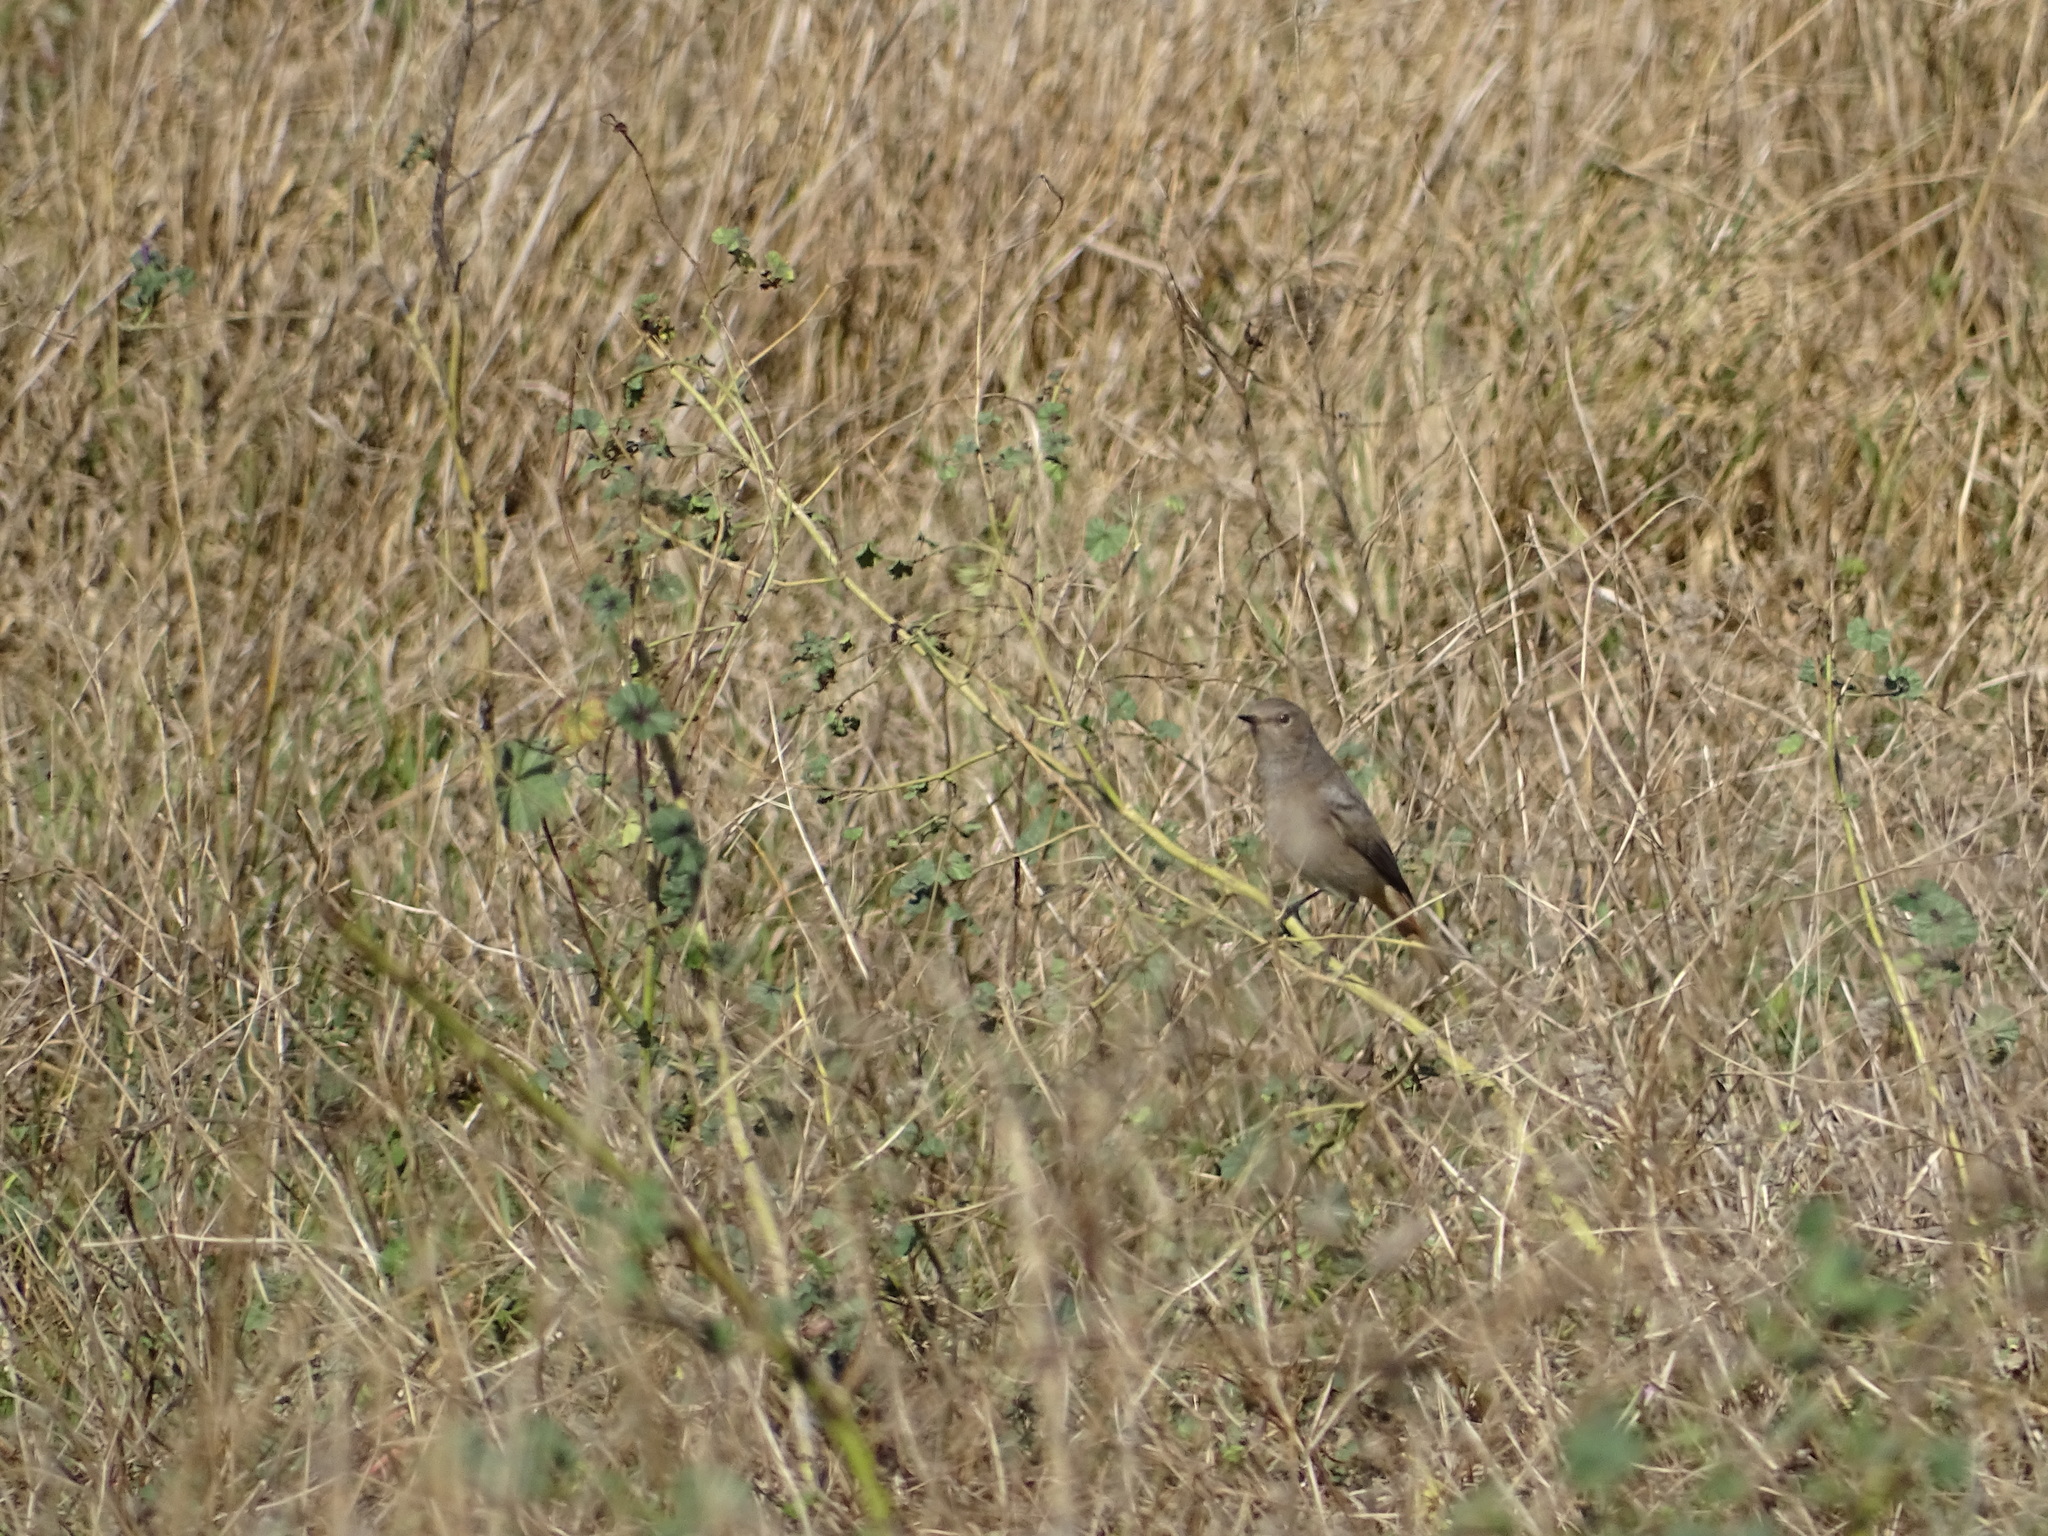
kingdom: Animalia
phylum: Chordata
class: Aves
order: Passeriformes
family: Muscicapidae
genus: Phoenicurus
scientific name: Phoenicurus ochruros
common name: Black redstart
